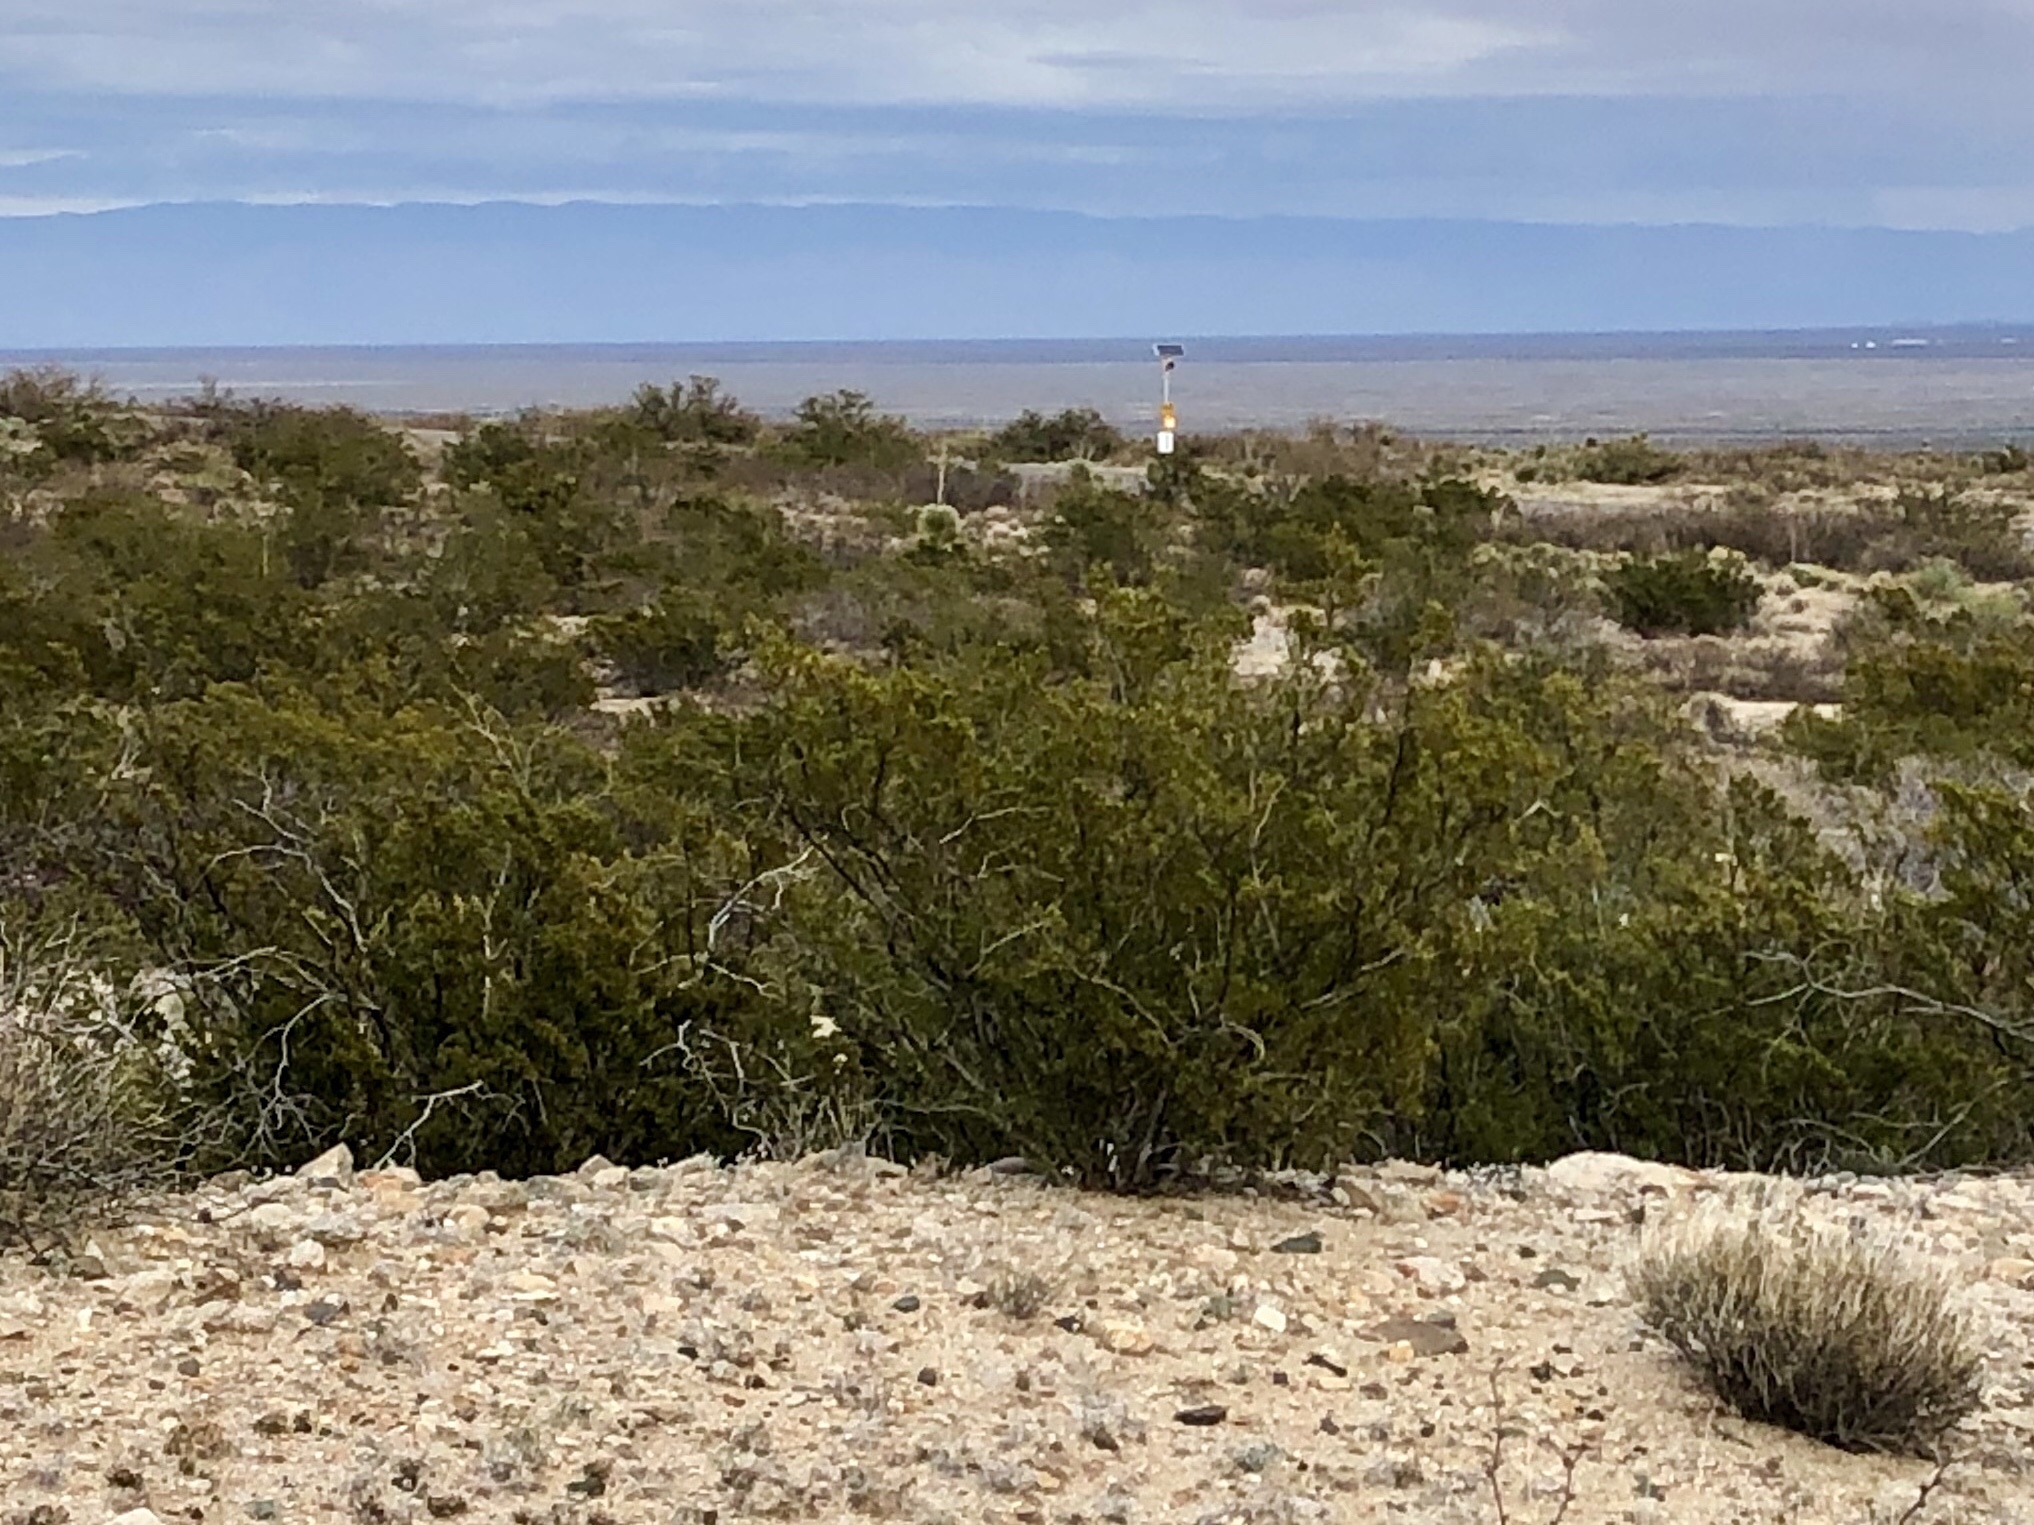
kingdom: Plantae
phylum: Tracheophyta
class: Magnoliopsida
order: Zygophyllales
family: Zygophyllaceae
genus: Larrea
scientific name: Larrea tridentata
